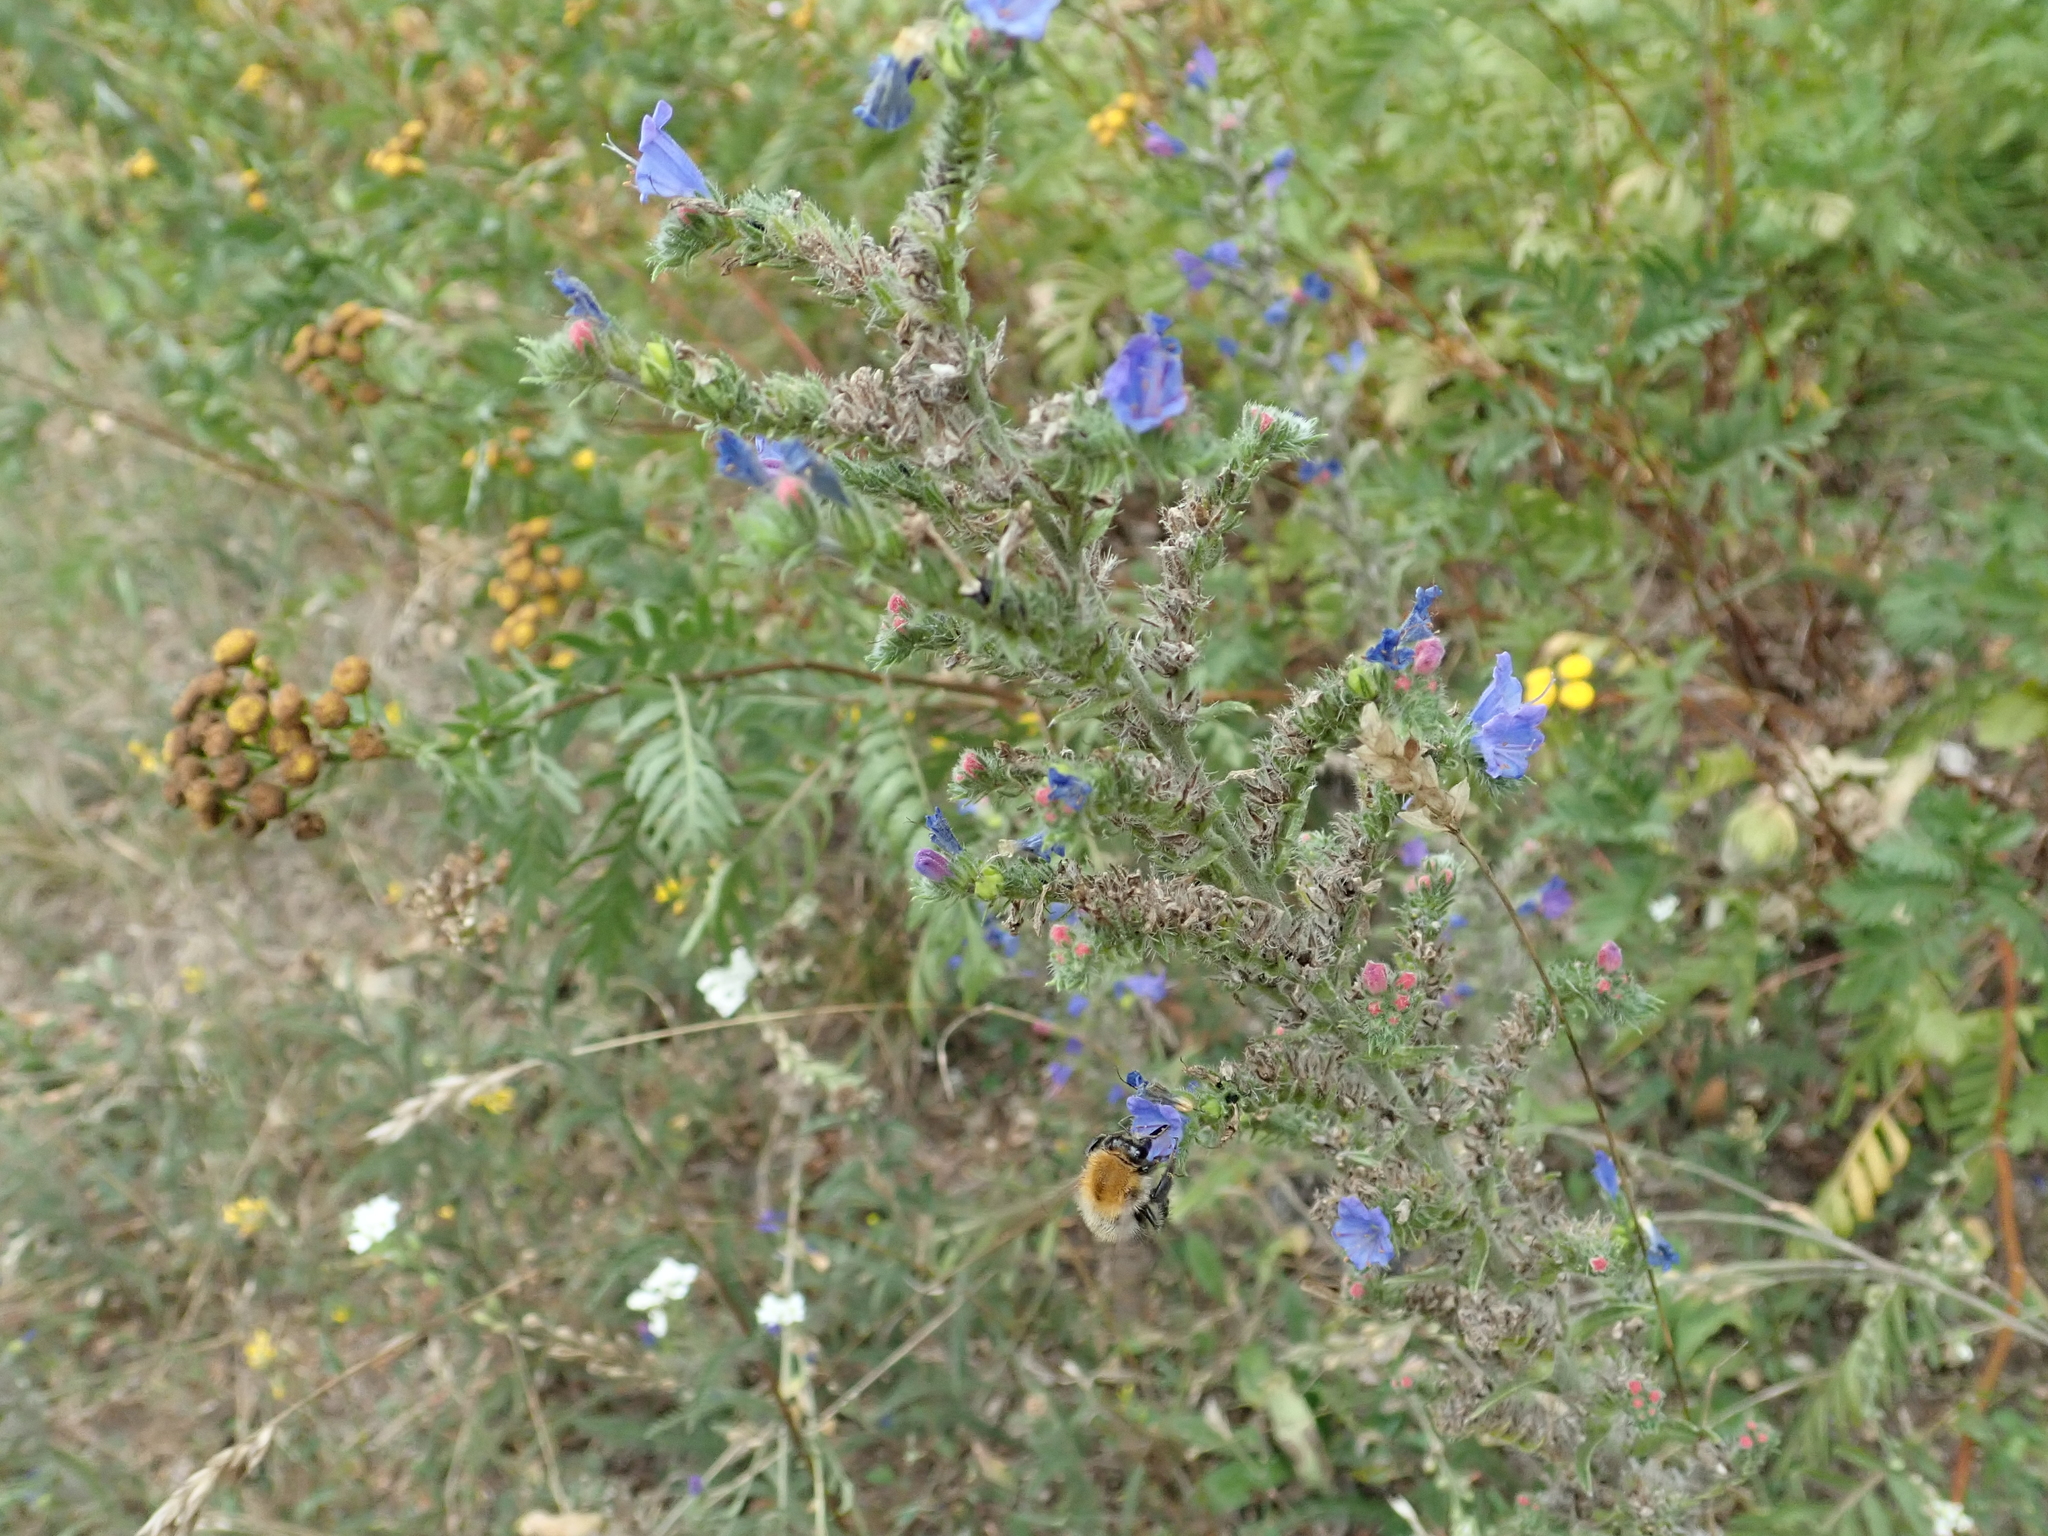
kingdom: Plantae
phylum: Tracheophyta
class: Magnoliopsida
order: Boraginales
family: Boraginaceae
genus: Echium
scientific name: Echium vulgare
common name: Common viper's bugloss
